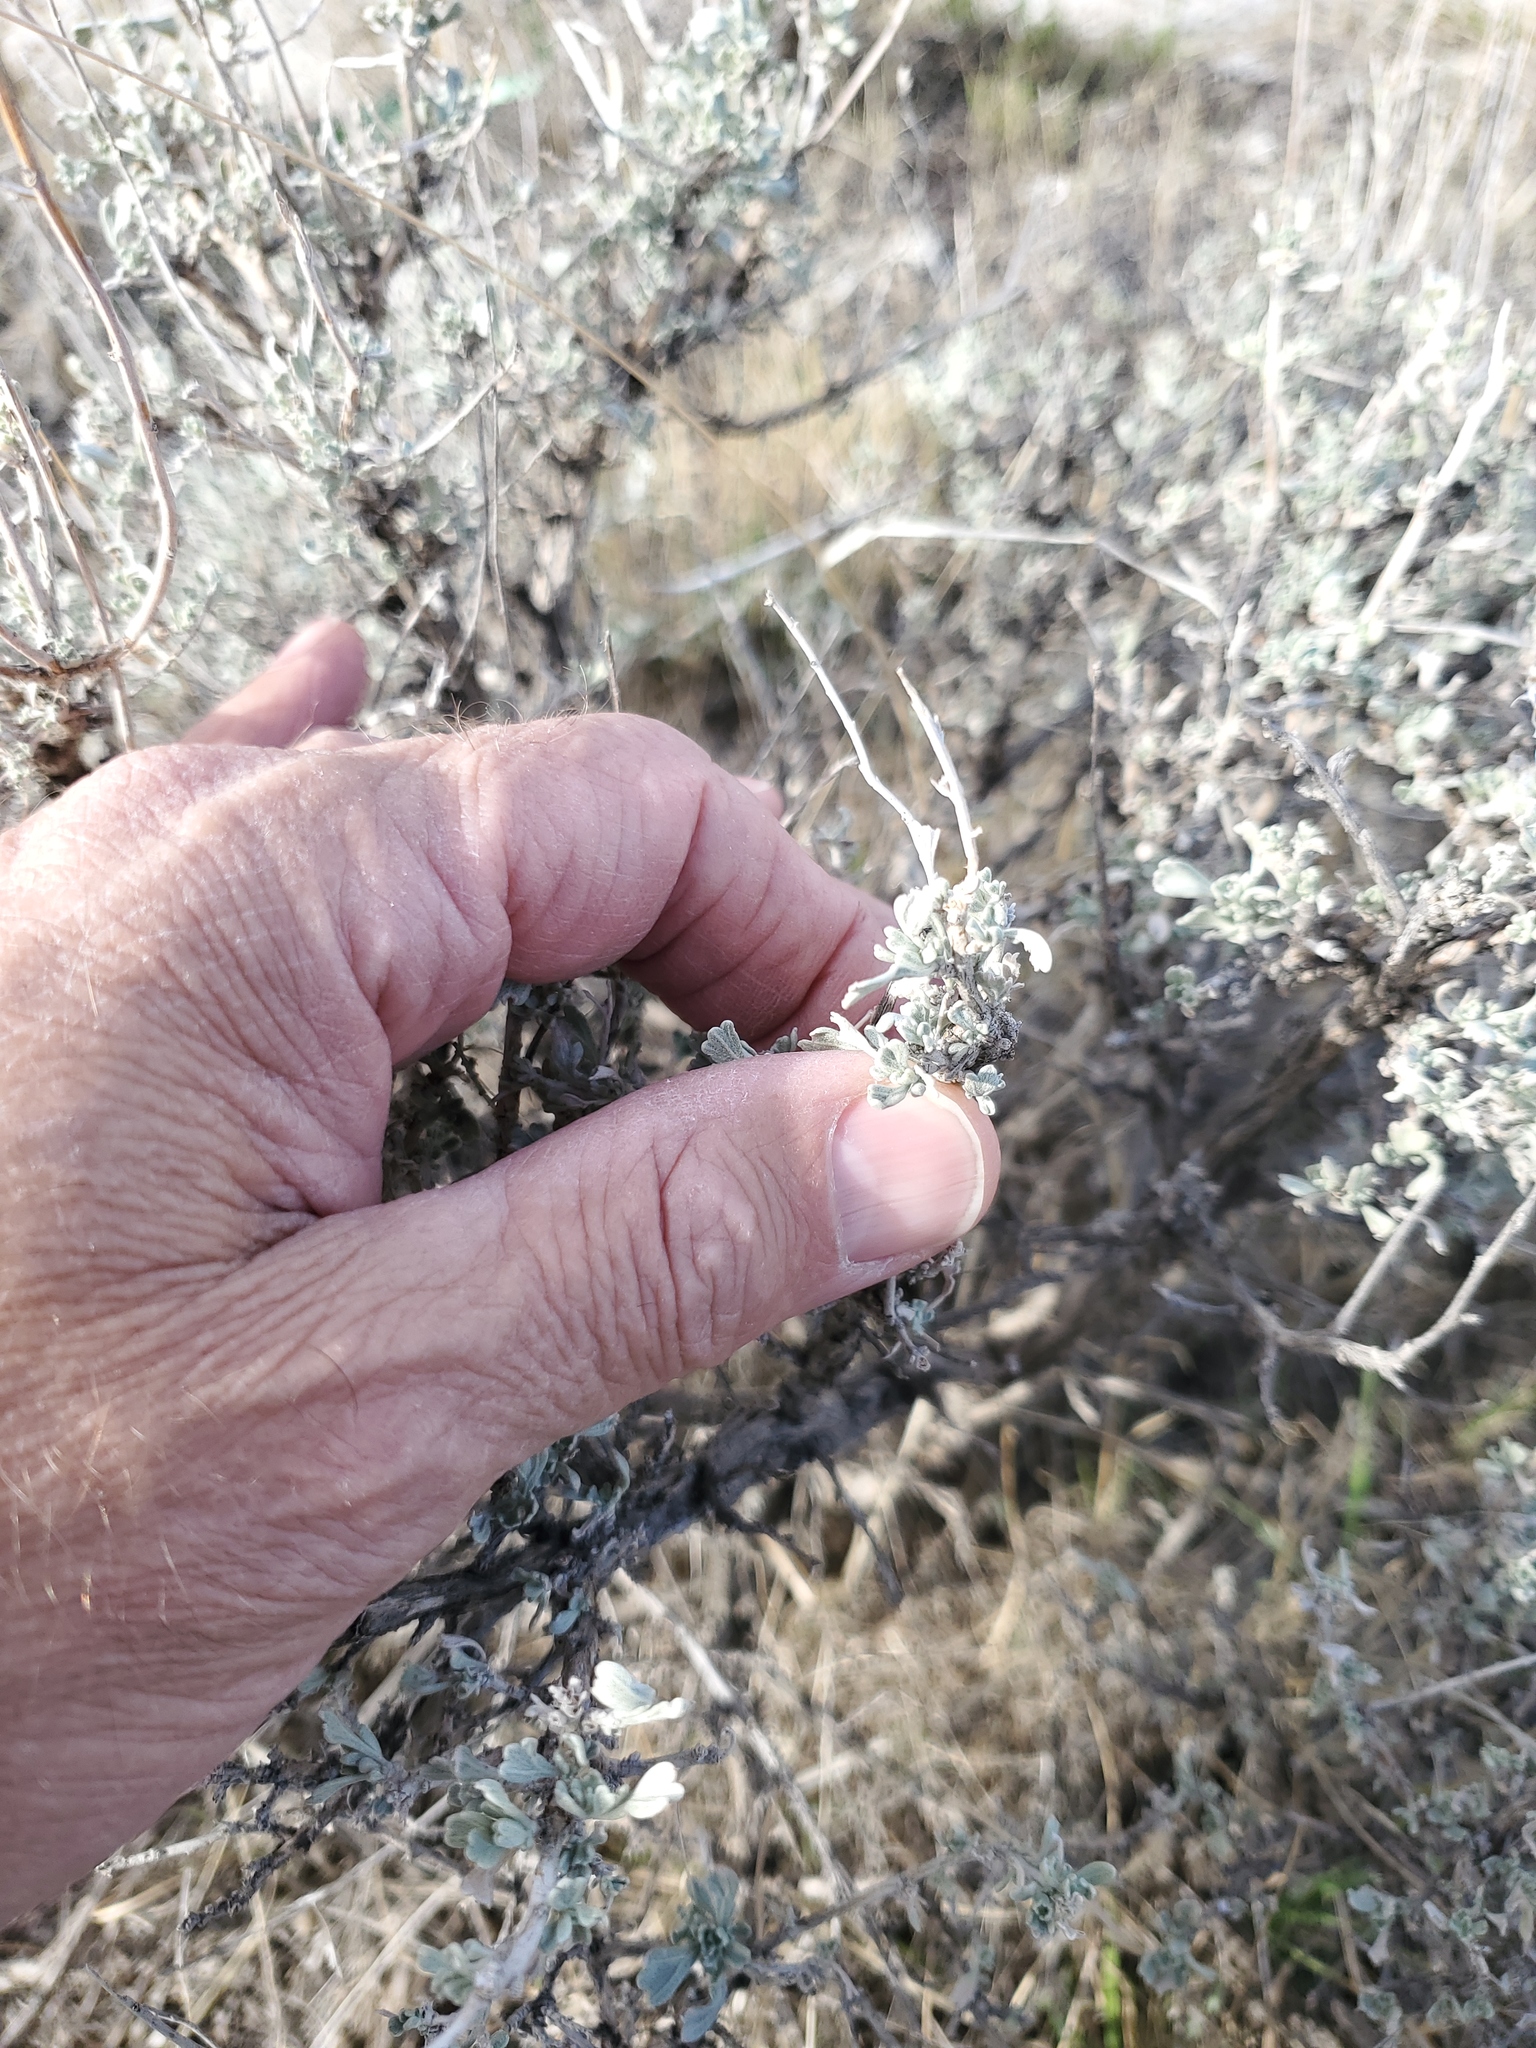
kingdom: Plantae
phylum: Tracheophyta
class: Magnoliopsida
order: Asterales
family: Asteraceae
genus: Artemisia
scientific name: Artemisia tridentata
